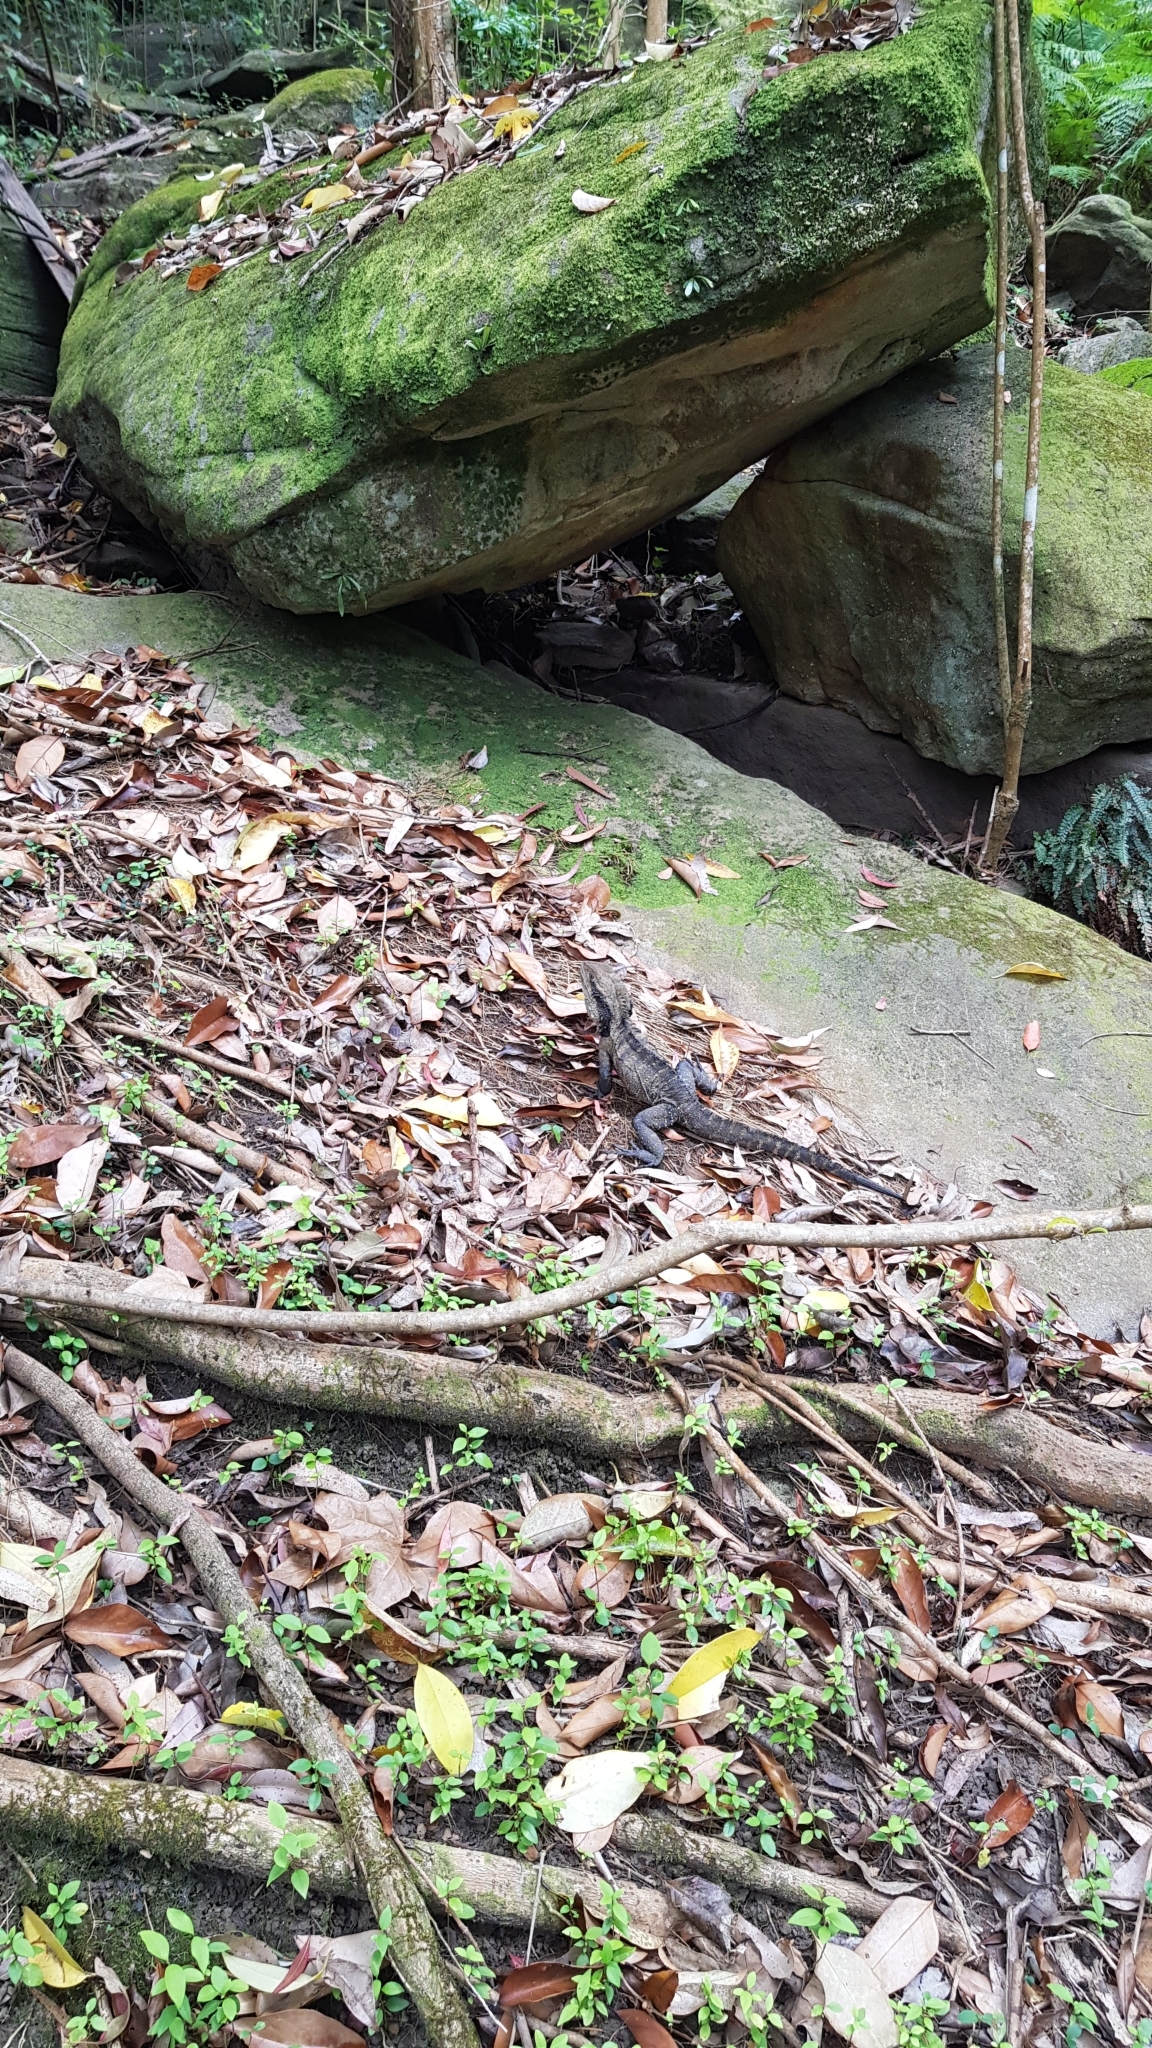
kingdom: Animalia
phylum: Chordata
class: Squamata
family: Agamidae
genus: Intellagama
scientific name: Intellagama lesueurii
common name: Eastern water dragon
